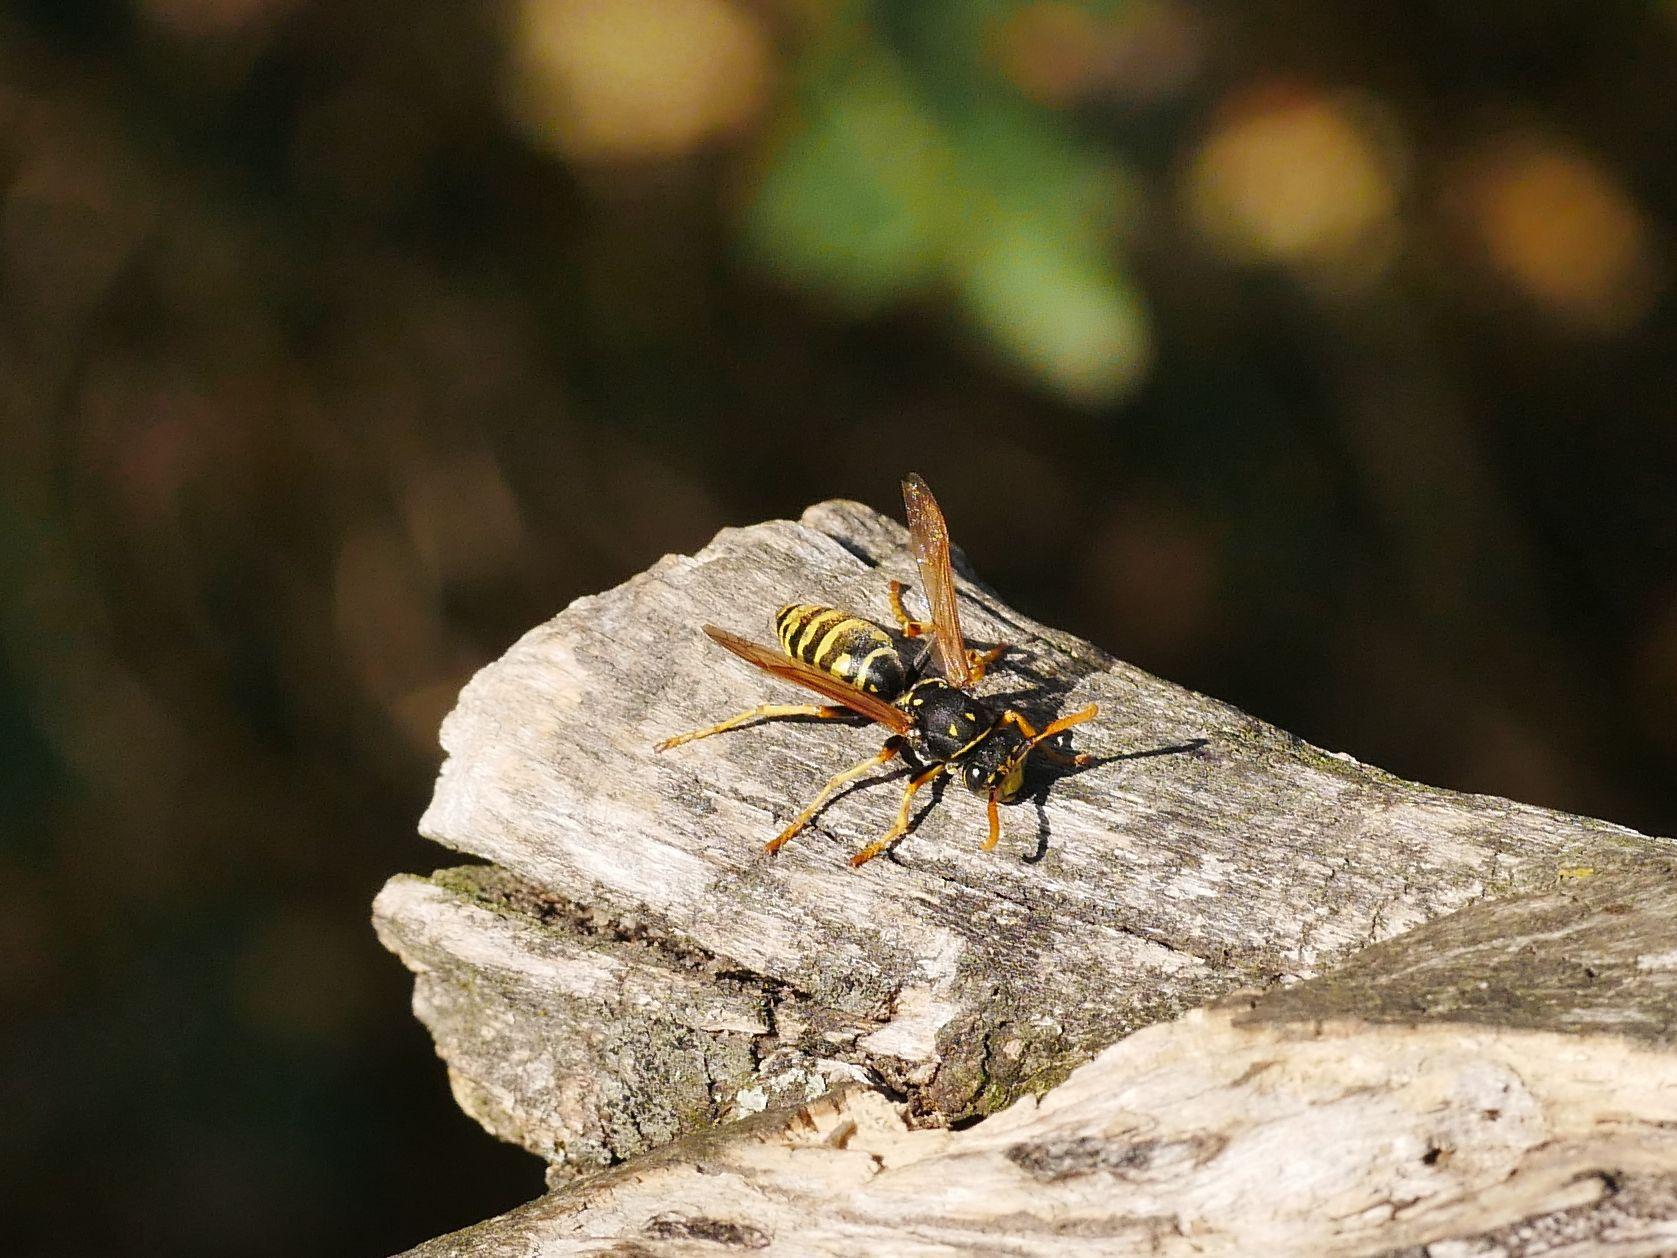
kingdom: Animalia
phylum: Arthropoda
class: Insecta
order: Hymenoptera
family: Eumenidae
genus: Polistes
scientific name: Polistes dominula
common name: Paper wasp
